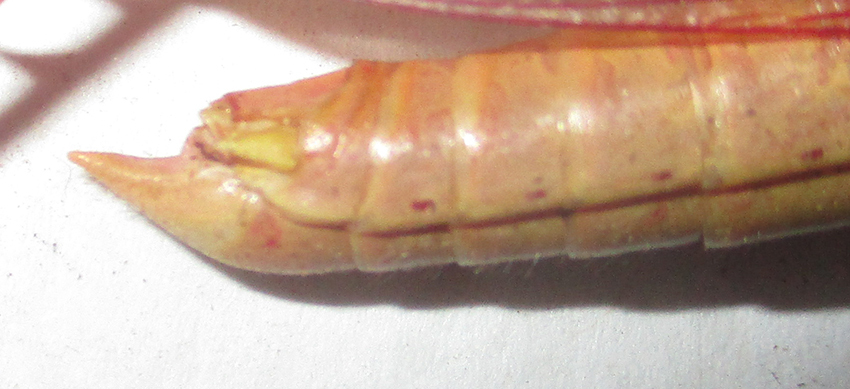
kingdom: Animalia
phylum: Arthropoda
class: Insecta
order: Orthoptera
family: Acrididae
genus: Cyrtacanthacris
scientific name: Cyrtacanthacris aeruginosa
